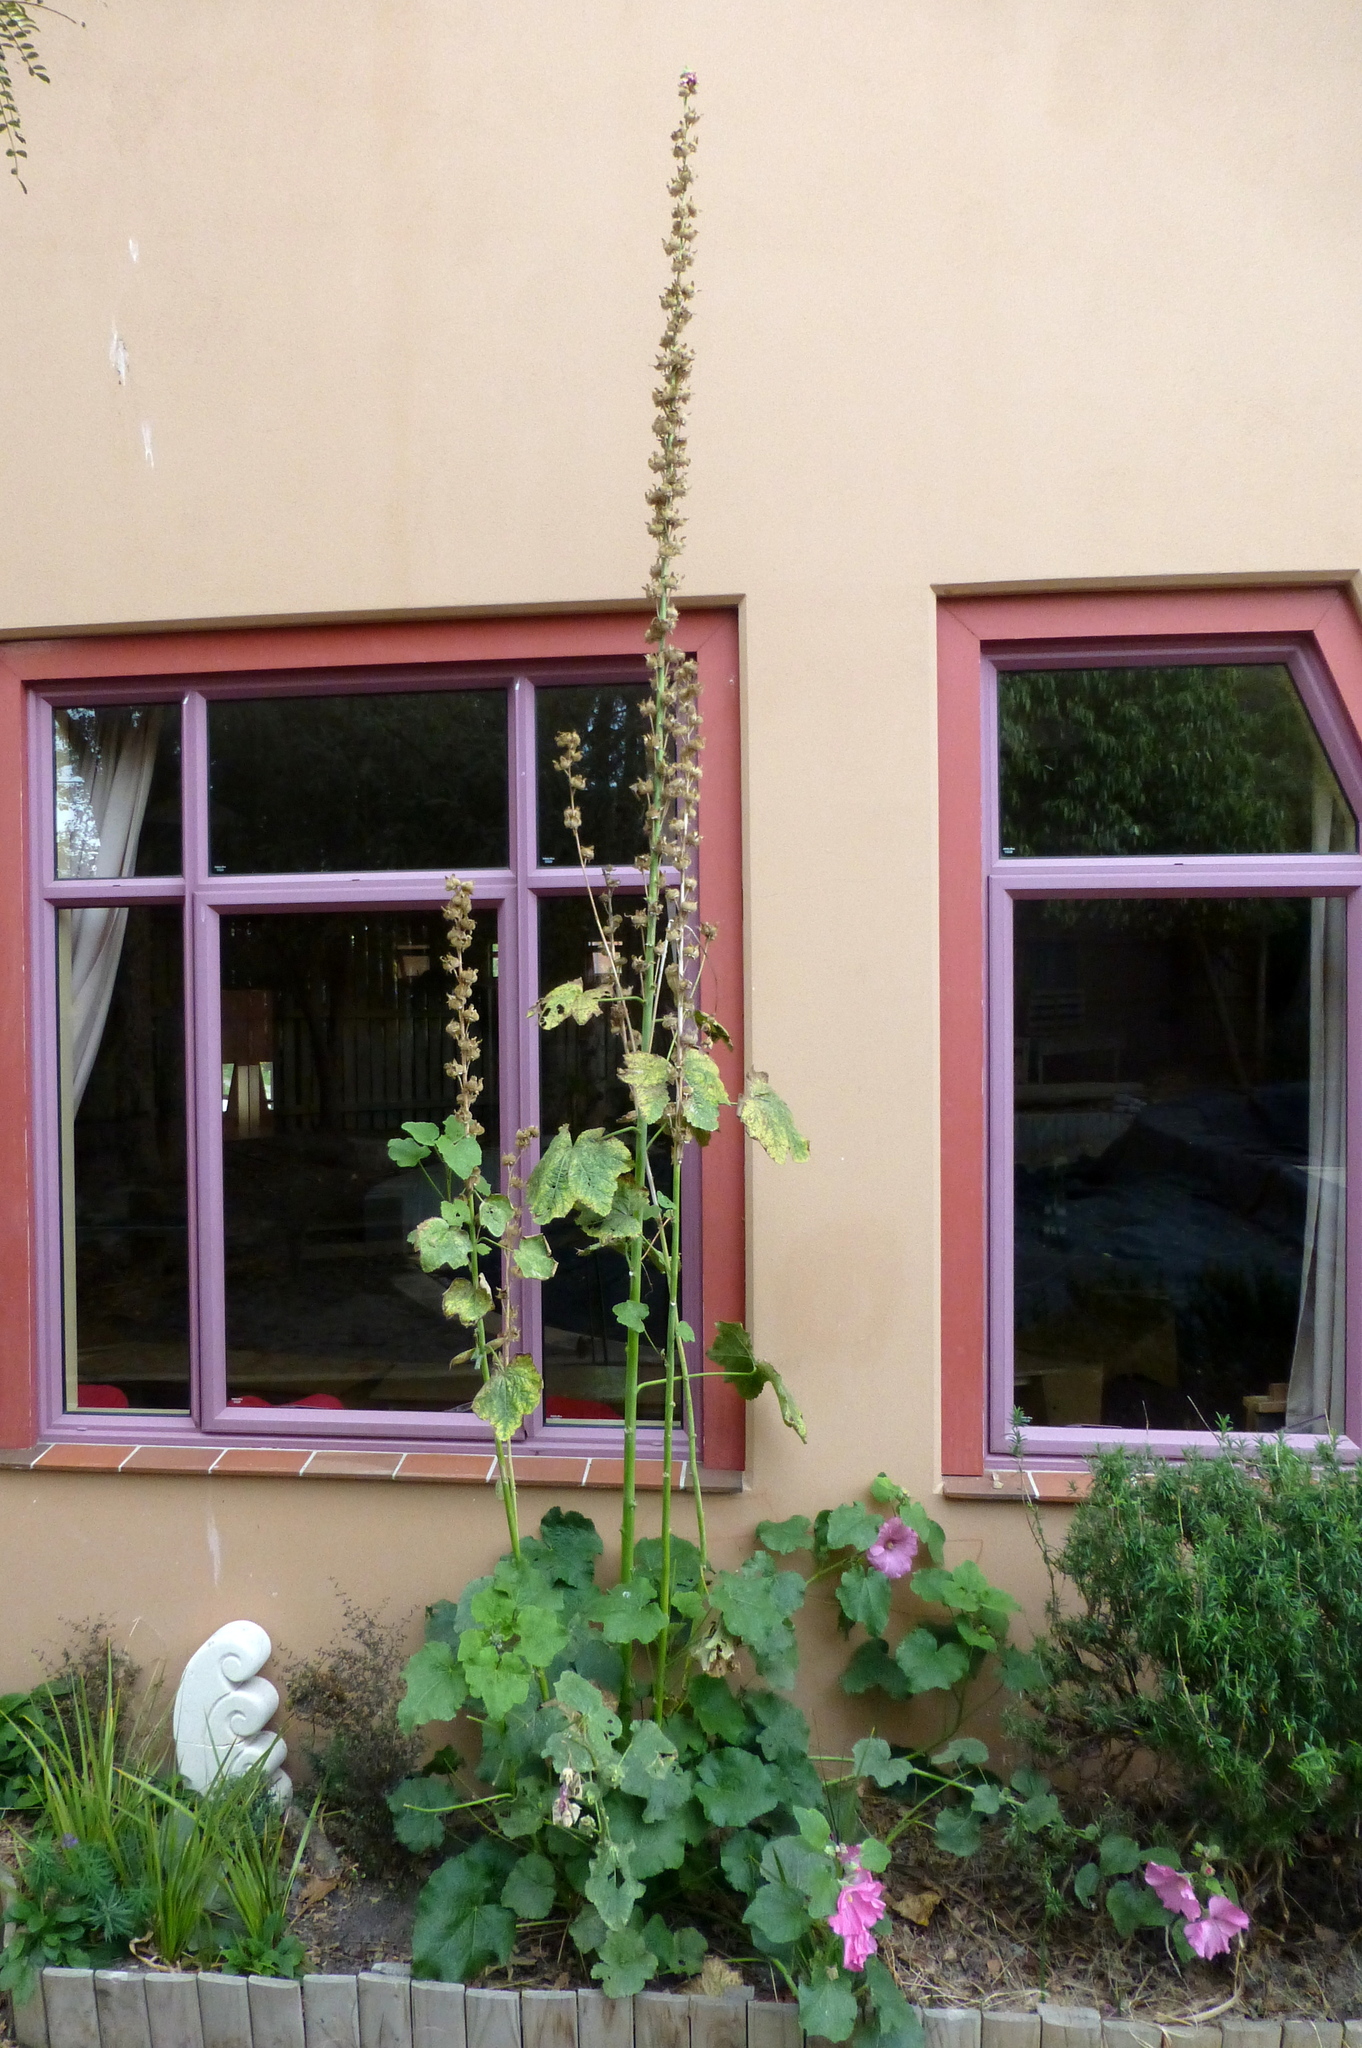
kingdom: Plantae
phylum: Tracheophyta
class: Magnoliopsida
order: Malvales
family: Malvaceae
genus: Alcea
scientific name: Alcea rosea
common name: Hollyhock
